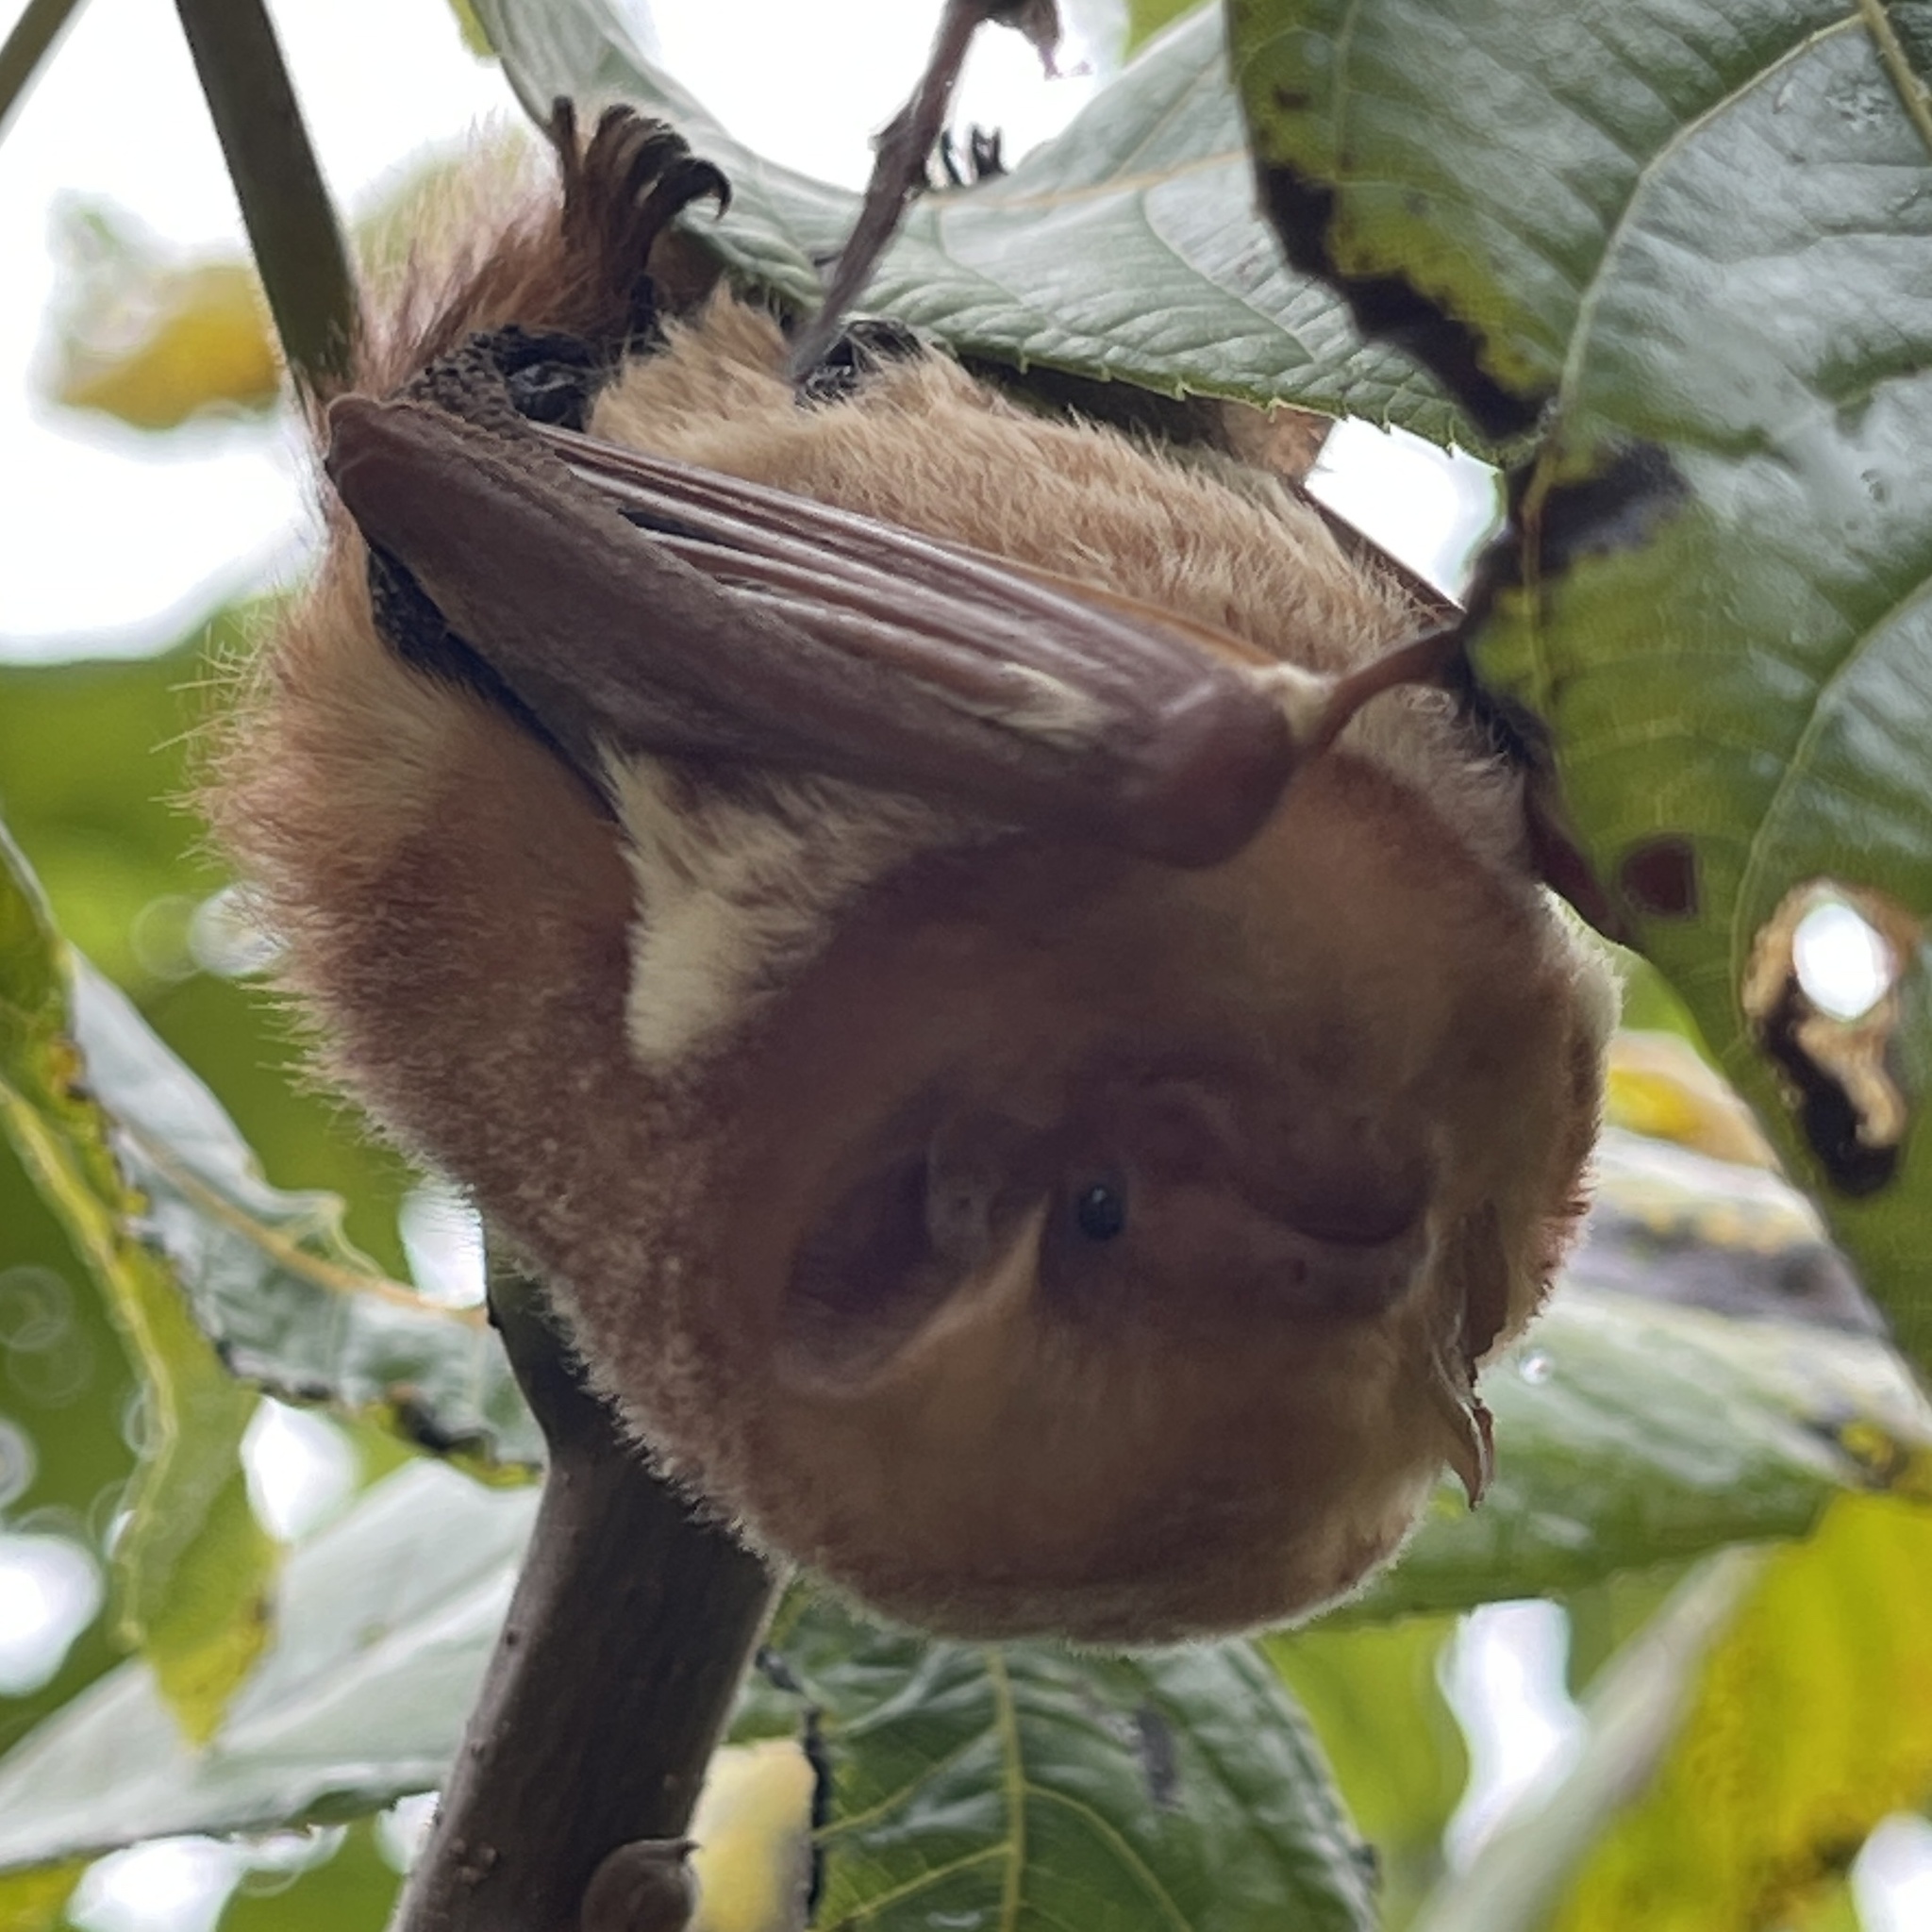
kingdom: Animalia
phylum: Chordata
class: Mammalia
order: Chiroptera
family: Vespertilionidae
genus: Lasiurus
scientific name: Lasiurus borealis
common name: Eastern red bat
